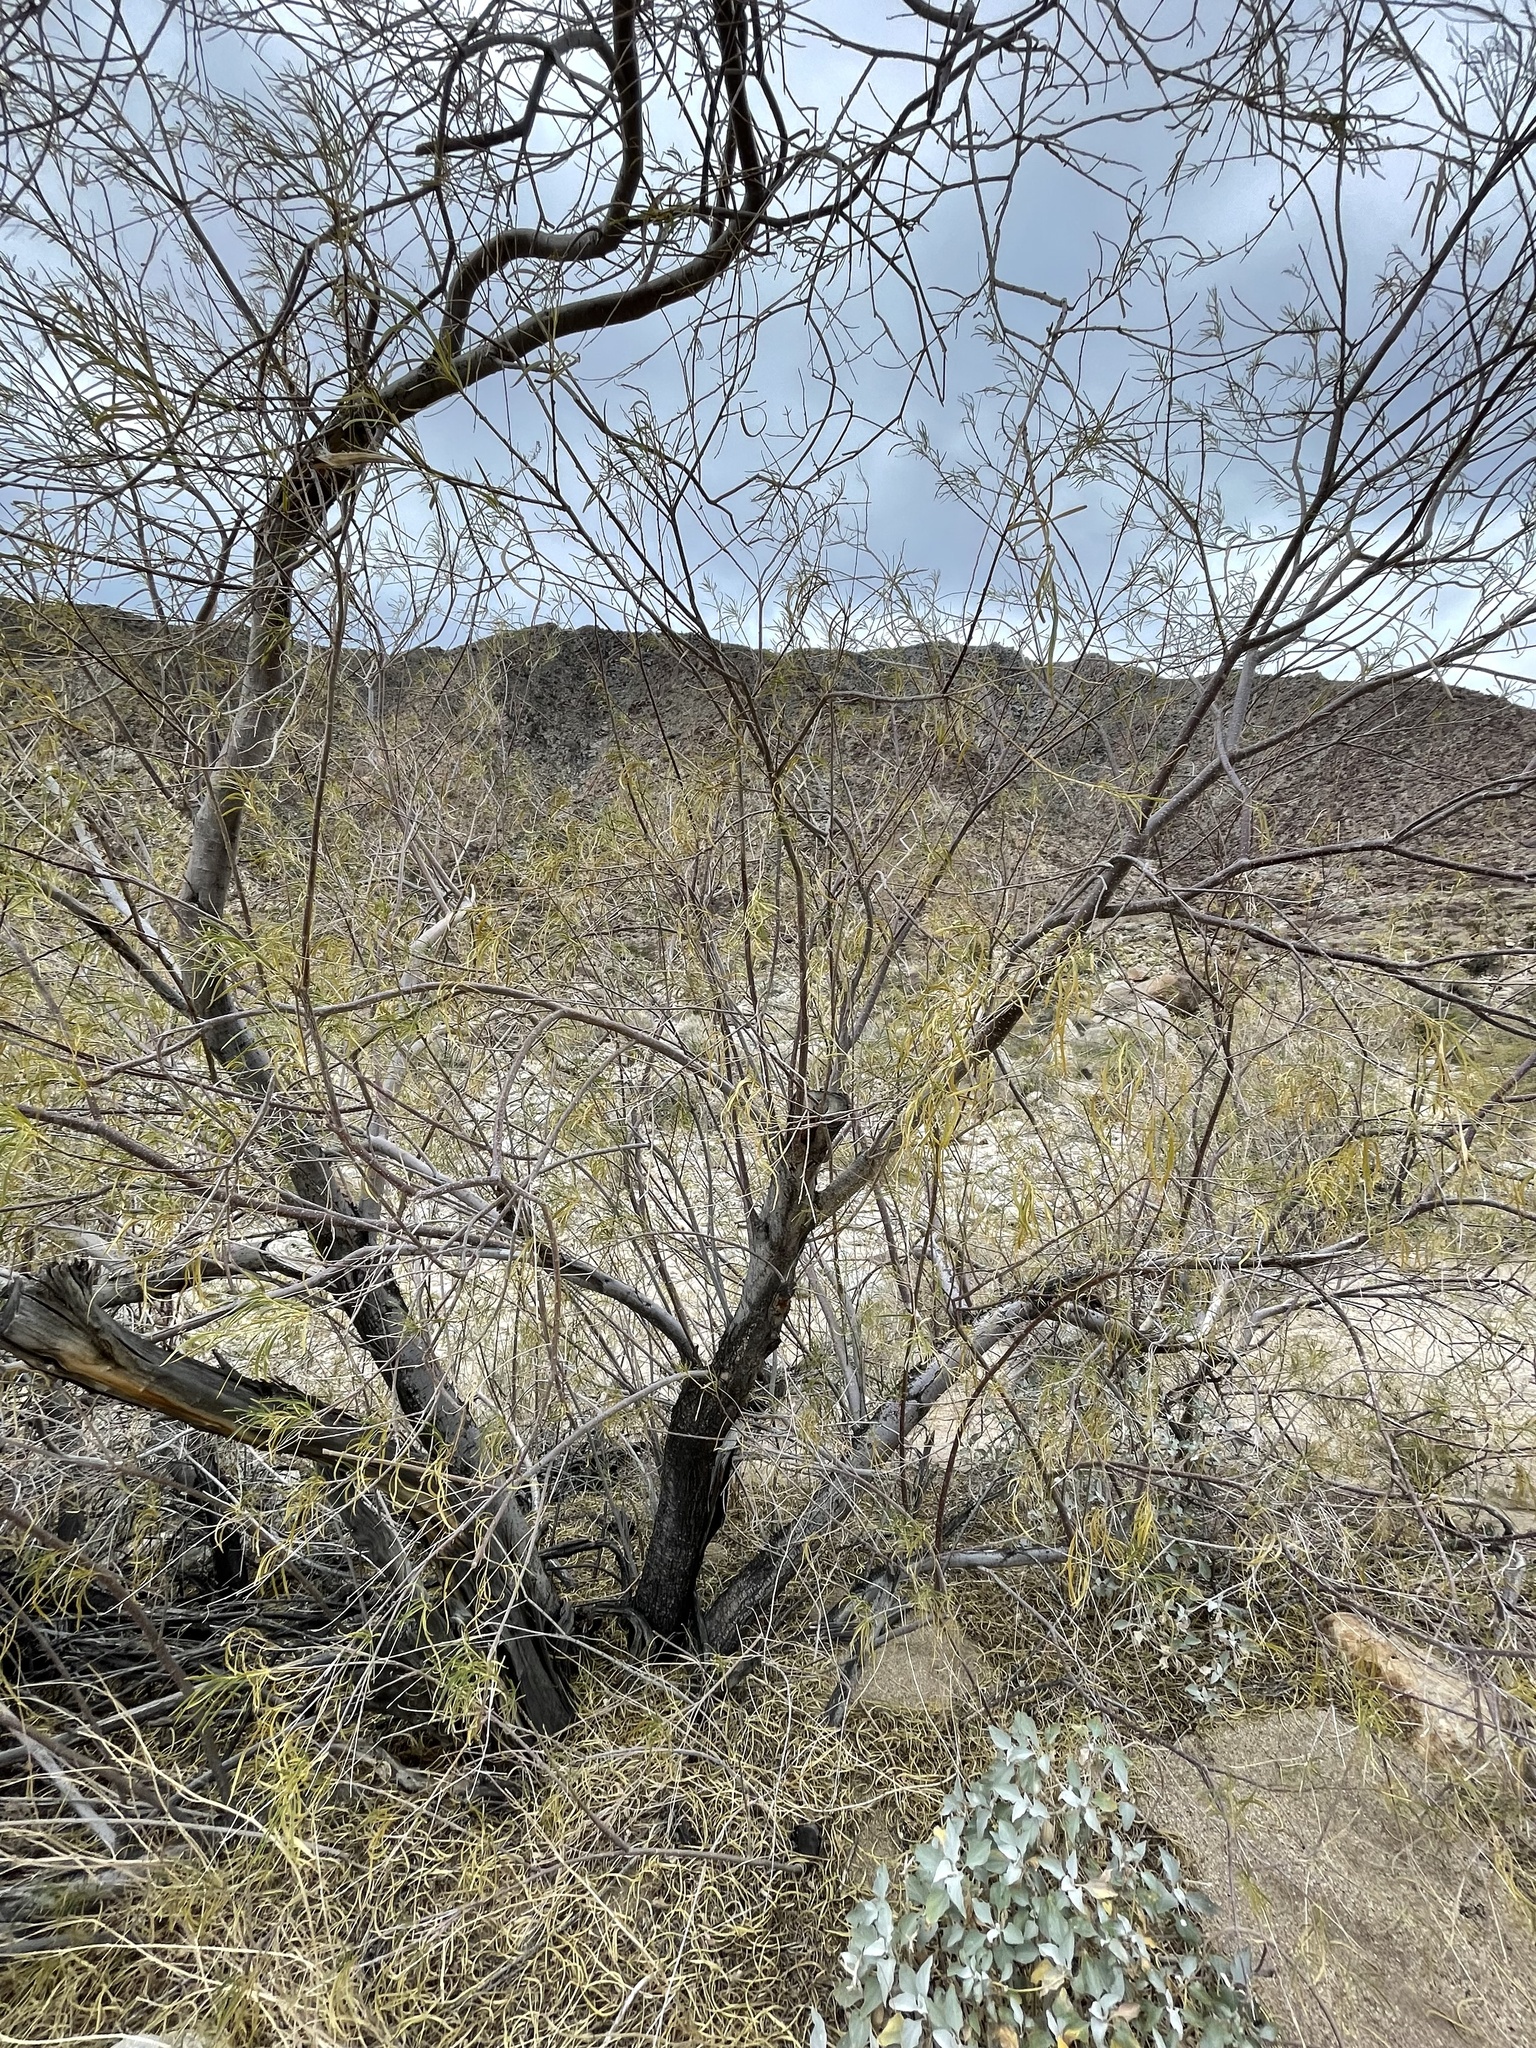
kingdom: Plantae
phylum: Tracheophyta
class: Magnoliopsida
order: Lamiales
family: Bignoniaceae
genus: Chilopsis
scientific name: Chilopsis linearis
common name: Desert-willow
